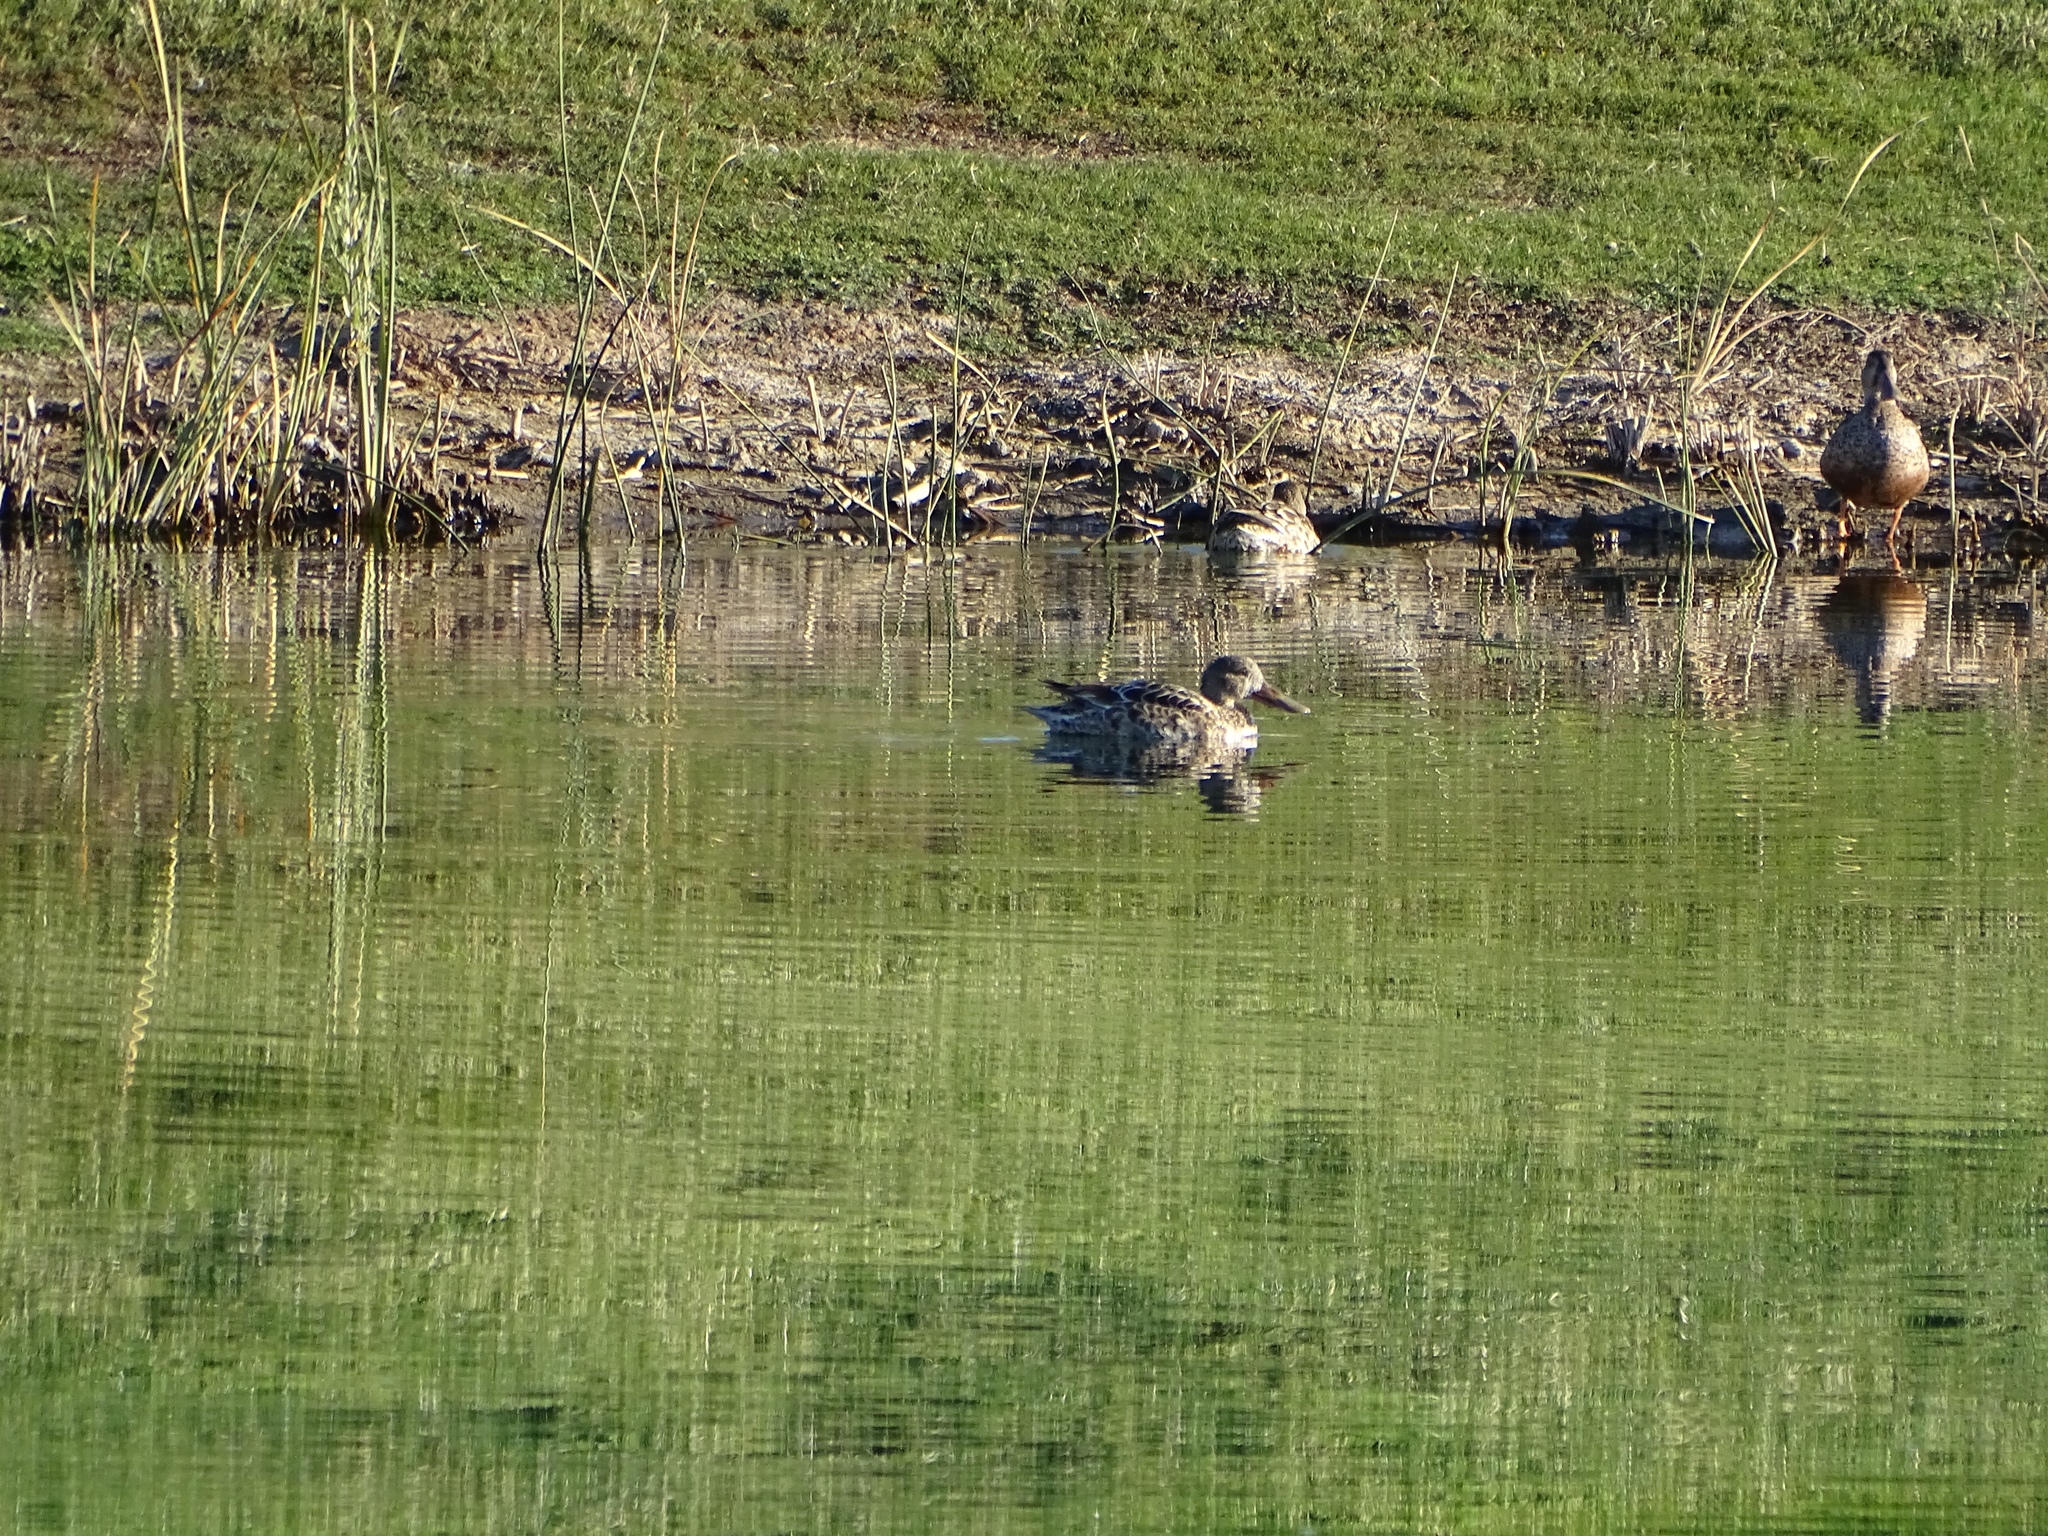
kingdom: Animalia
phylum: Chordata
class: Aves
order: Anseriformes
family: Anatidae
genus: Spatula
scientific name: Spatula clypeata
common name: Northern shoveler
